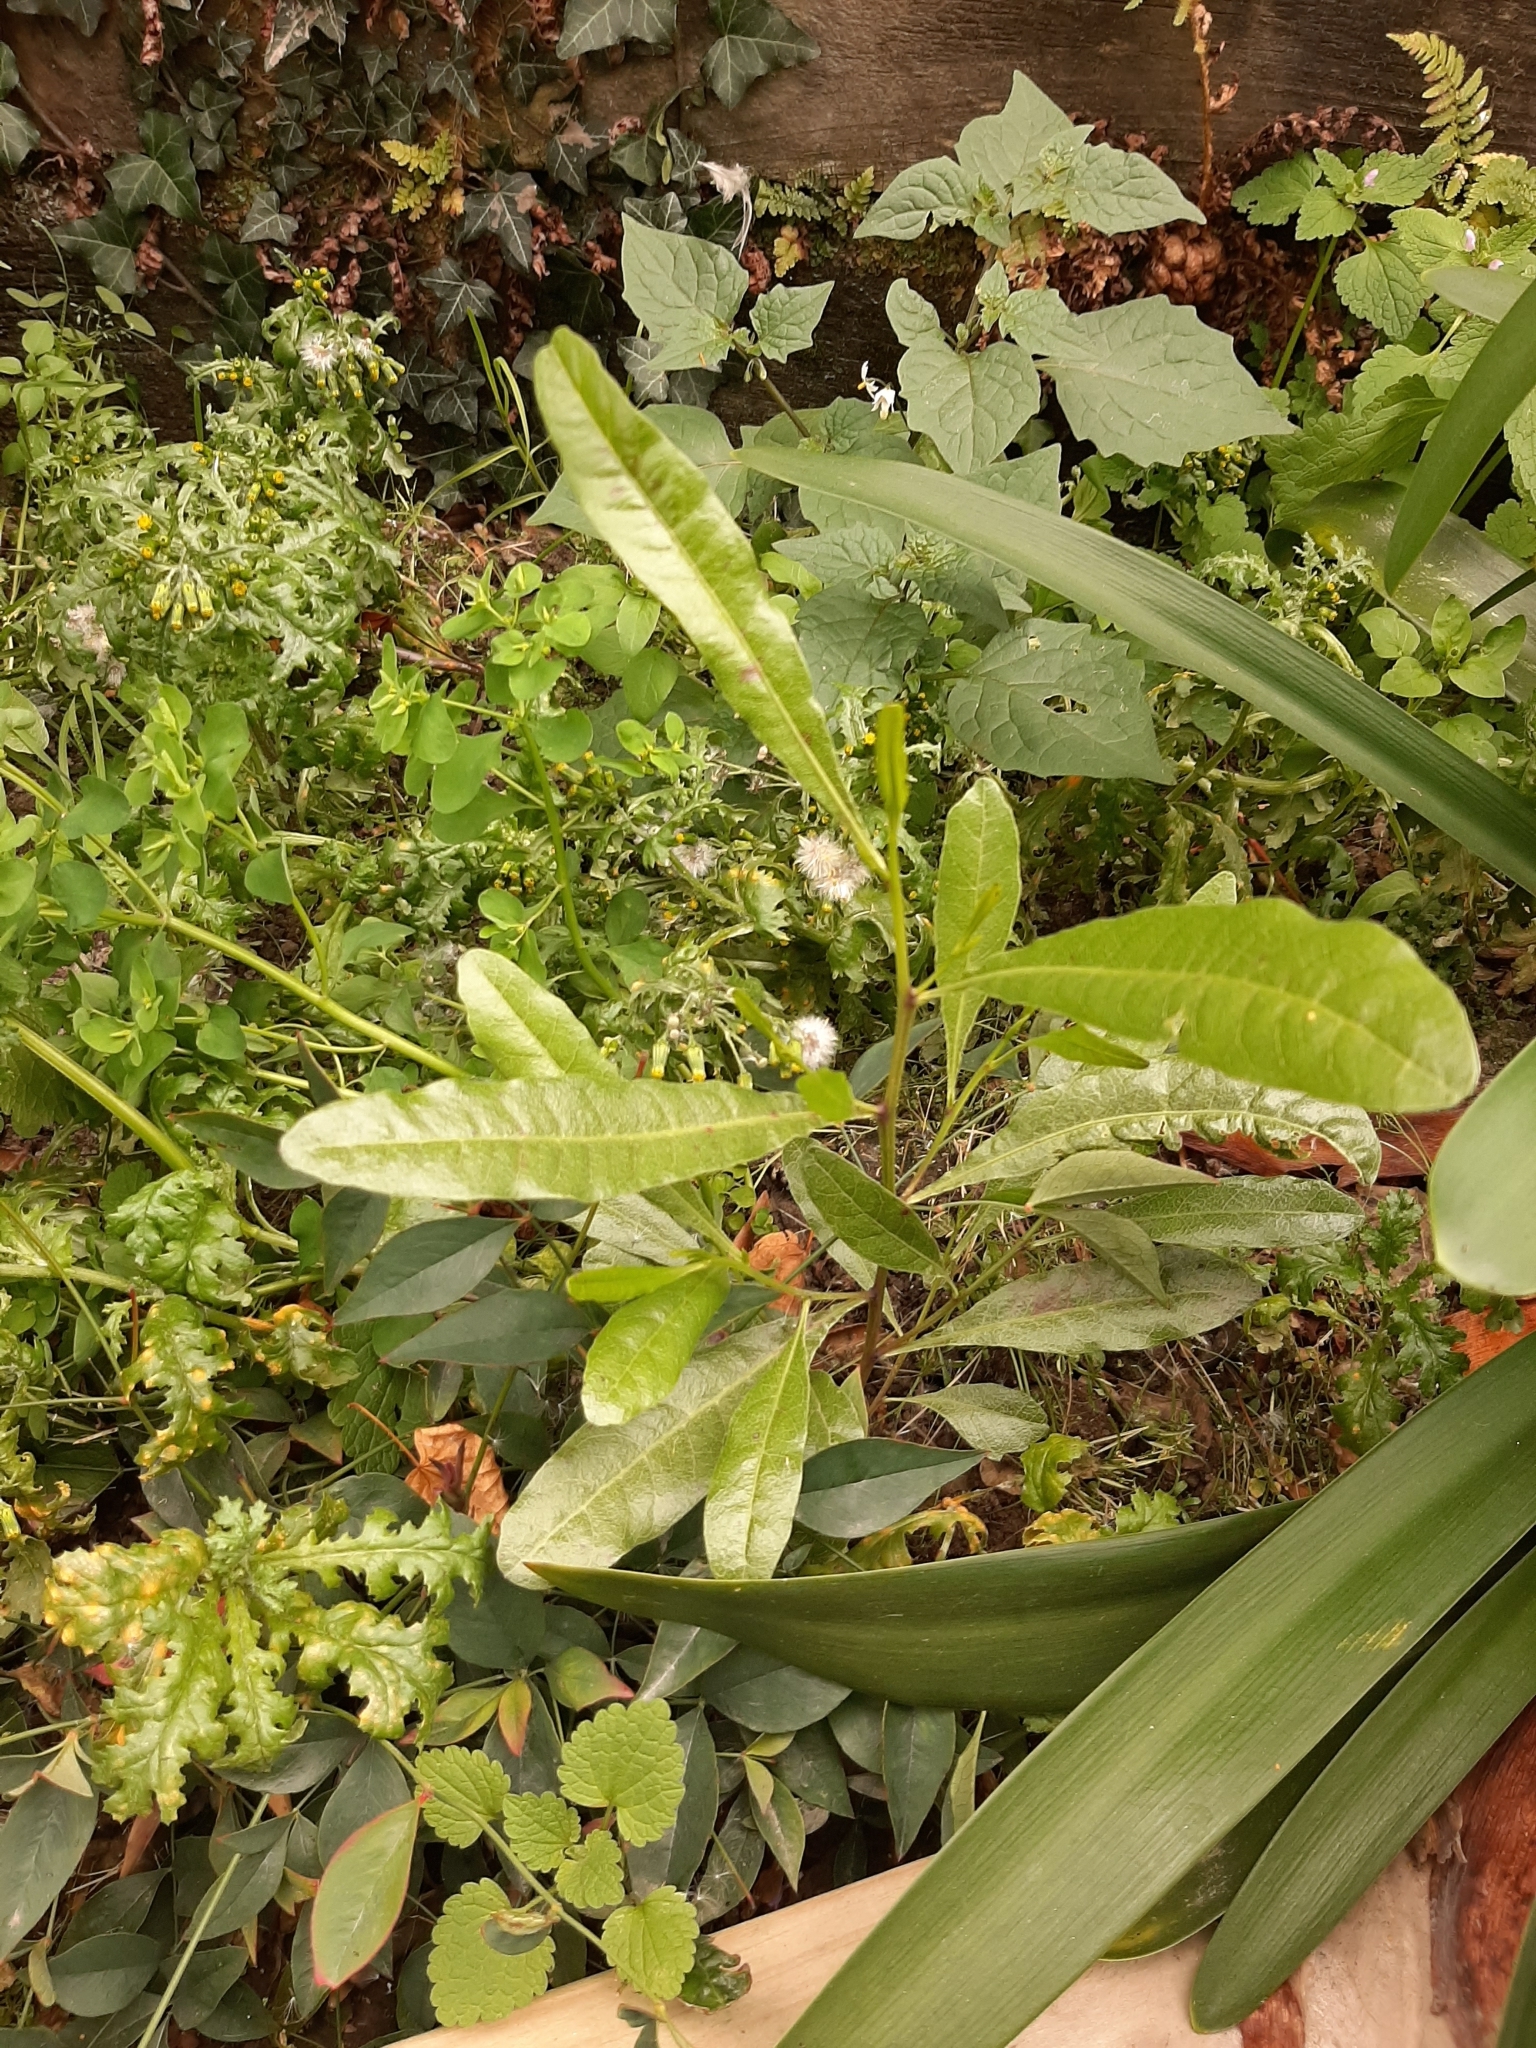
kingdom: Plantae
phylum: Tracheophyta
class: Magnoliopsida
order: Sapindales
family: Sapindaceae
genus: Dodonaea
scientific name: Dodonaea viscosa
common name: Hopbush
